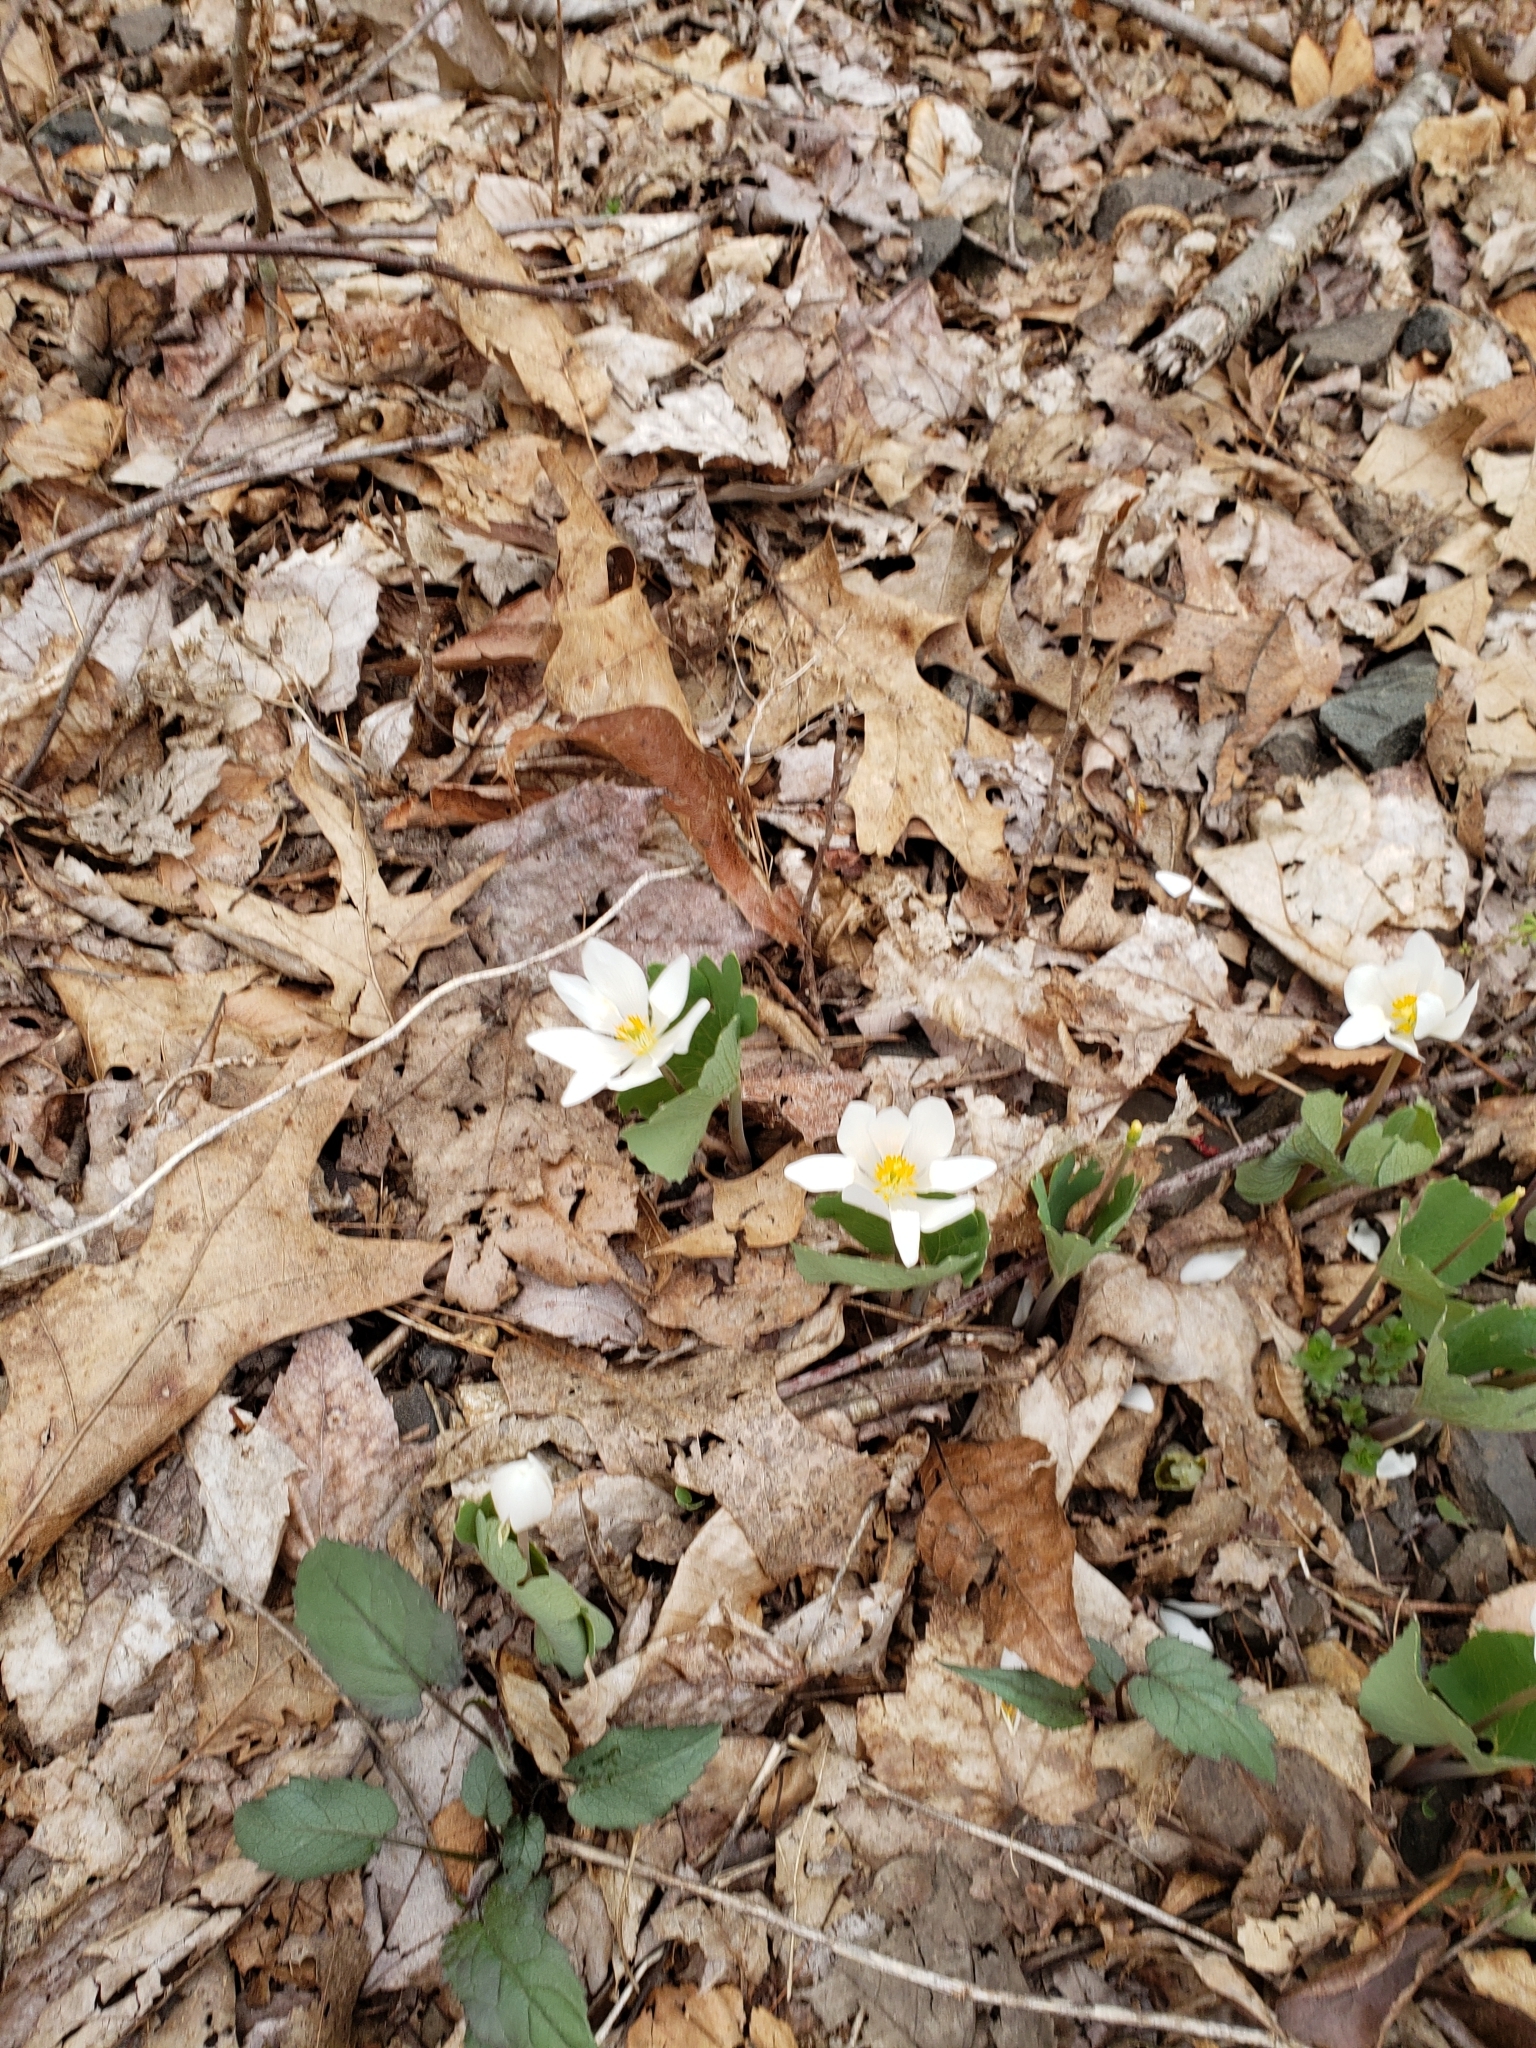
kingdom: Plantae
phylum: Tracheophyta
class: Magnoliopsida
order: Ranunculales
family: Papaveraceae
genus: Sanguinaria
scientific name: Sanguinaria canadensis
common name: Bloodroot
